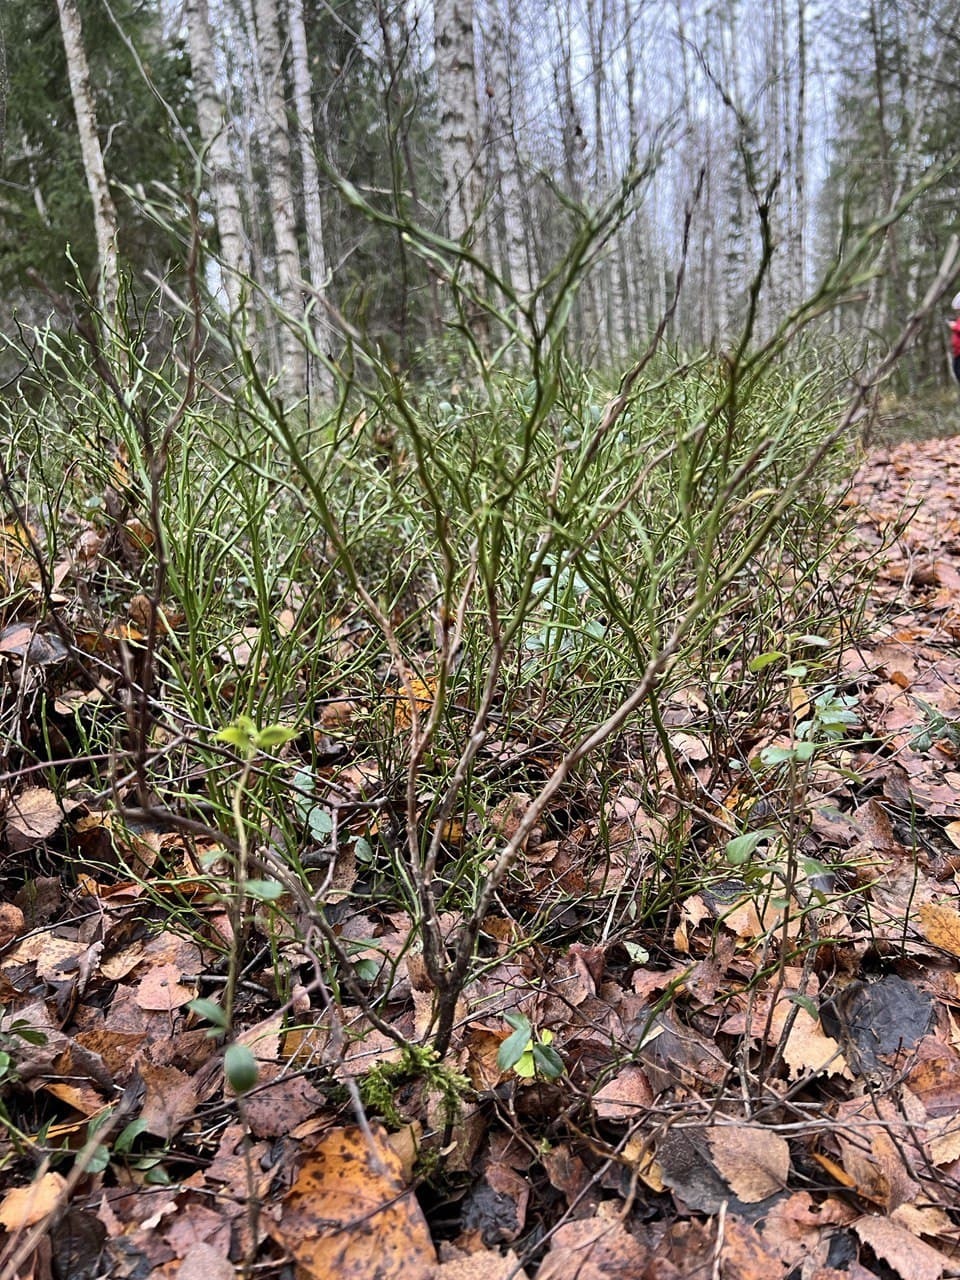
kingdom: Plantae
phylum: Tracheophyta
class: Magnoliopsida
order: Ericales
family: Ericaceae
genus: Vaccinium
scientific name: Vaccinium myrtillus
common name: Bilberry
